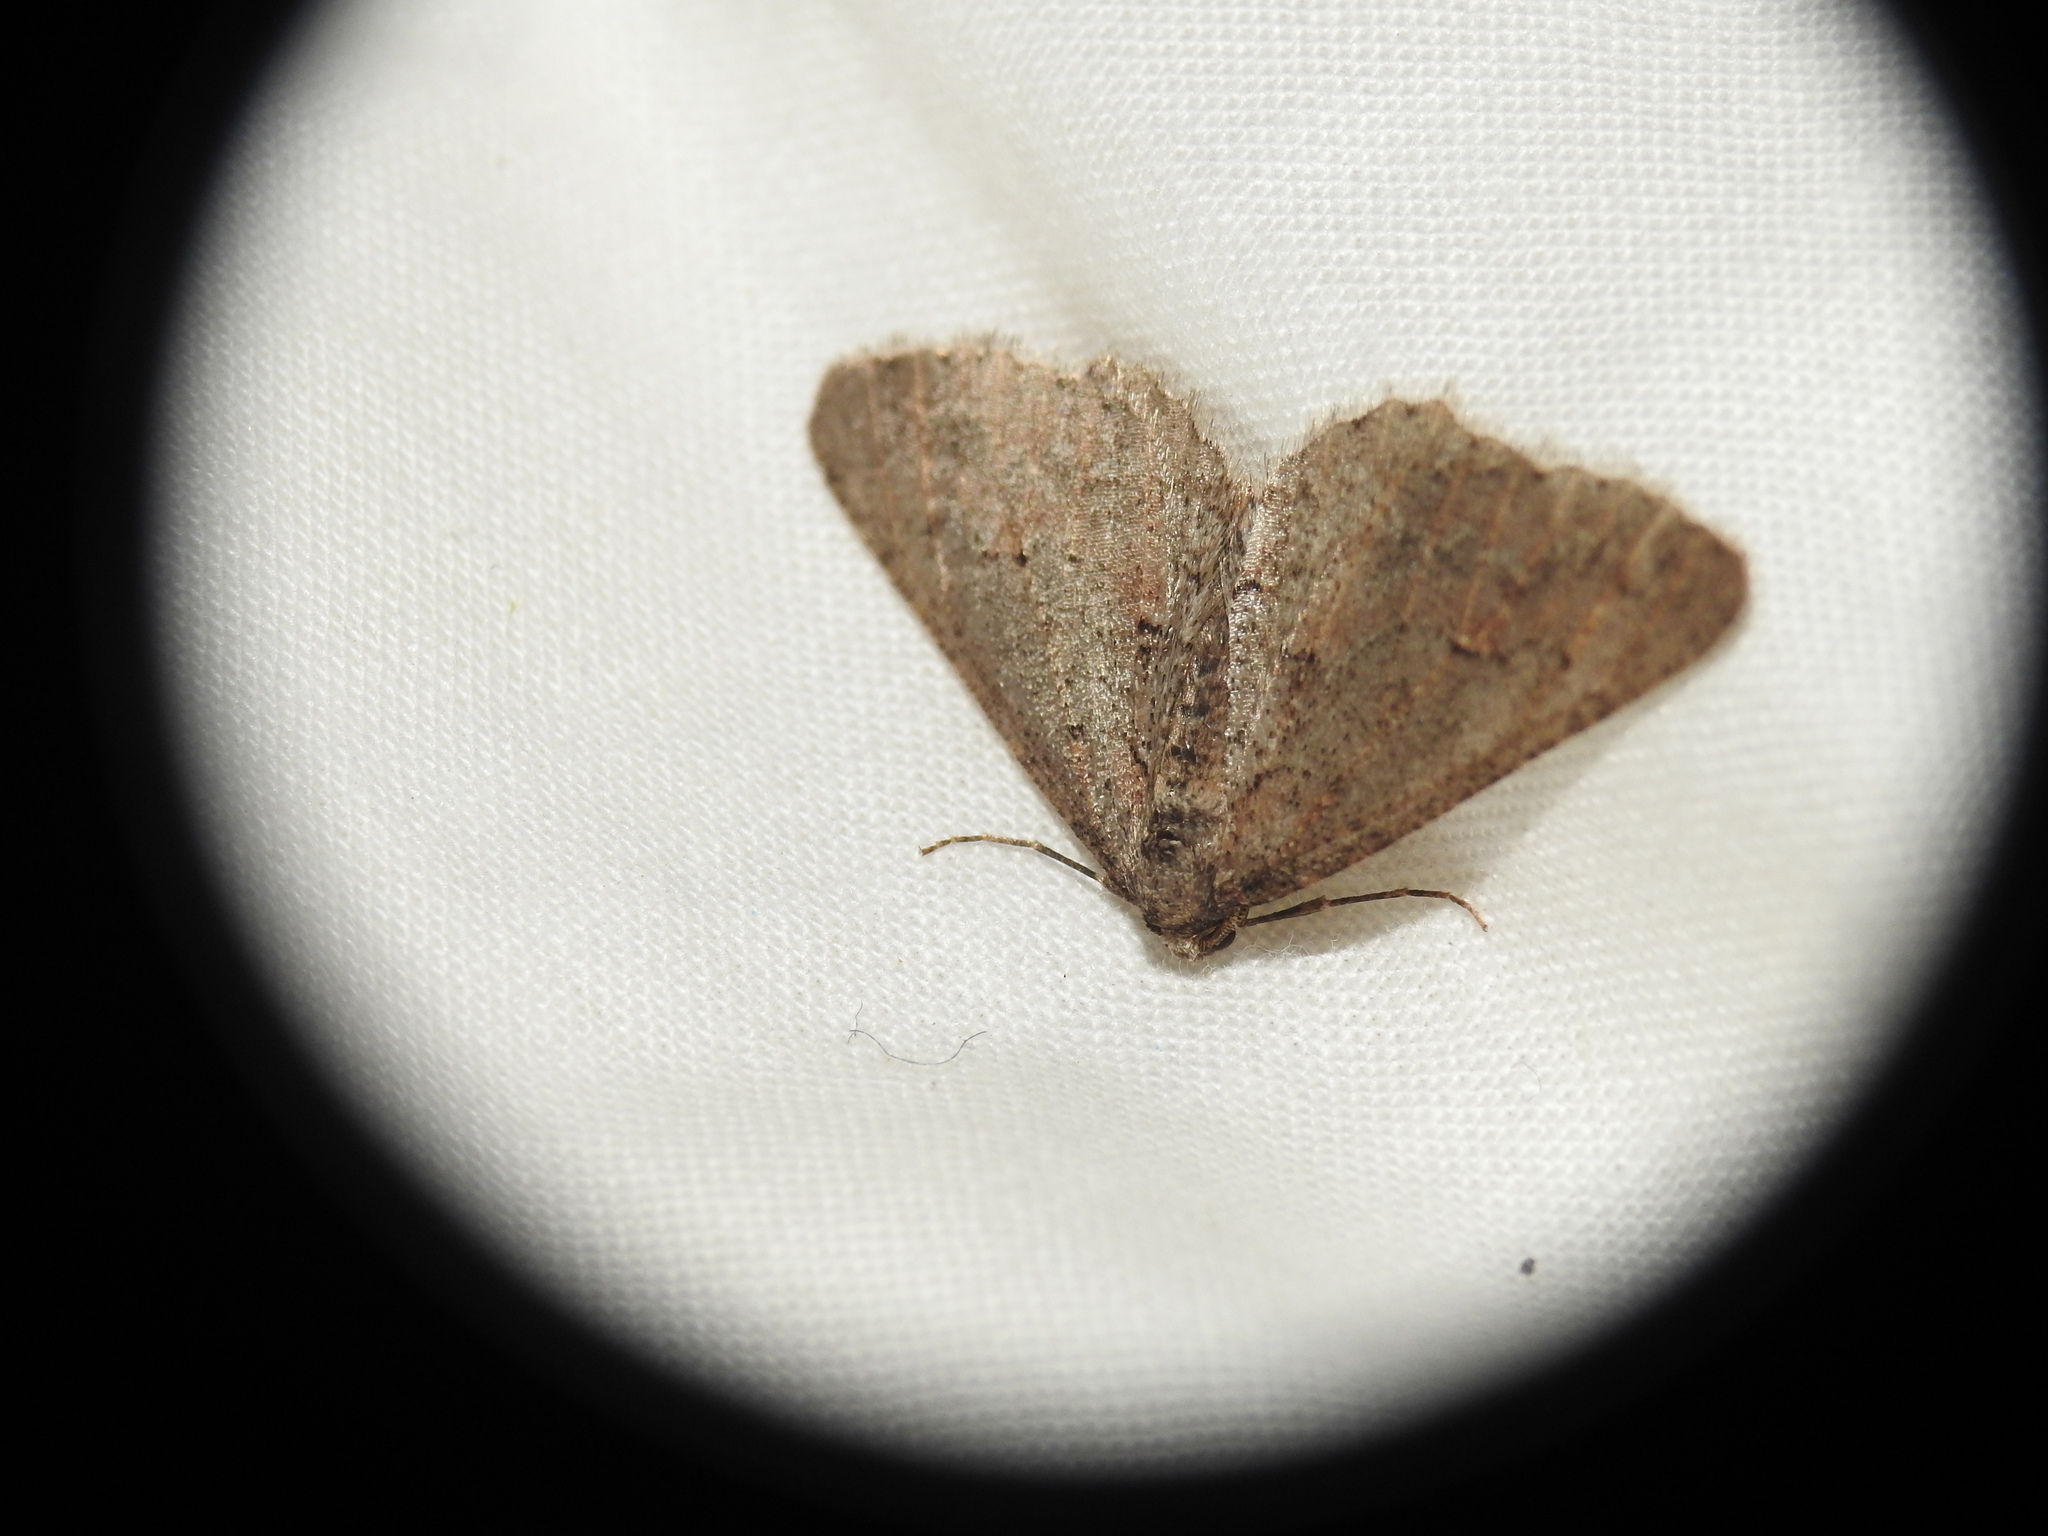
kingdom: Animalia
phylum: Arthropoda
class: Insecta
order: Lepidoptera
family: Geometridae
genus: Agriopis
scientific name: Agriopis bajaria
